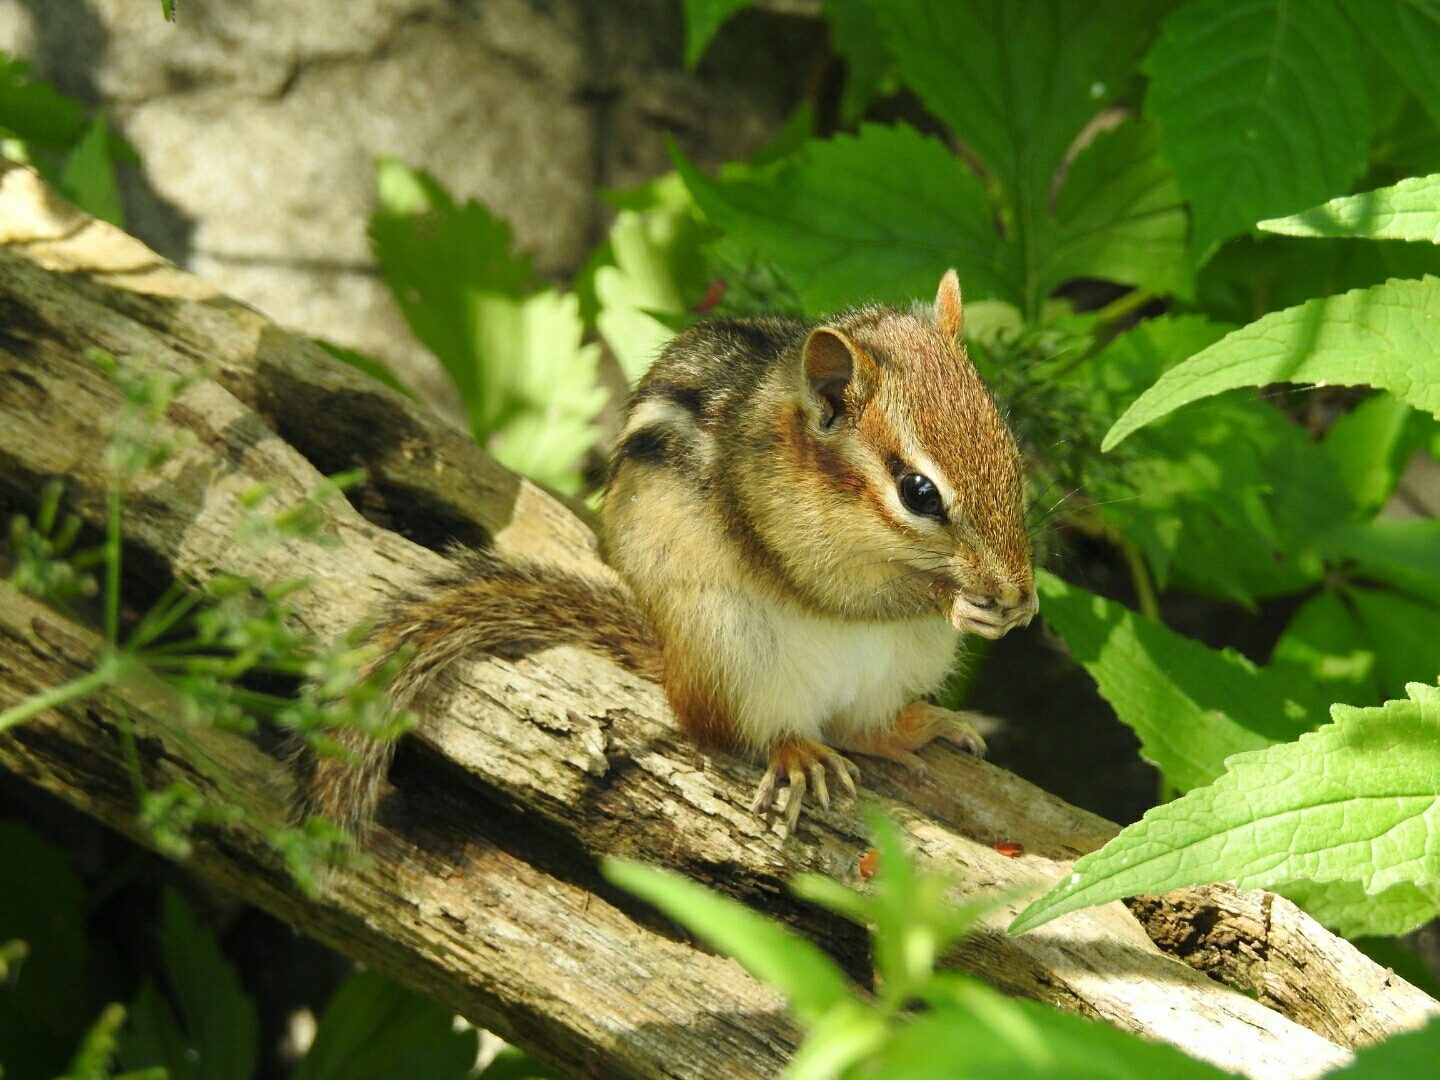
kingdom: Animalia
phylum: Chordata
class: Mammalia
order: Rodentia
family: Sciuridae
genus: Tamias
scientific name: Tamias striatus
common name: Eastern chipmunk
